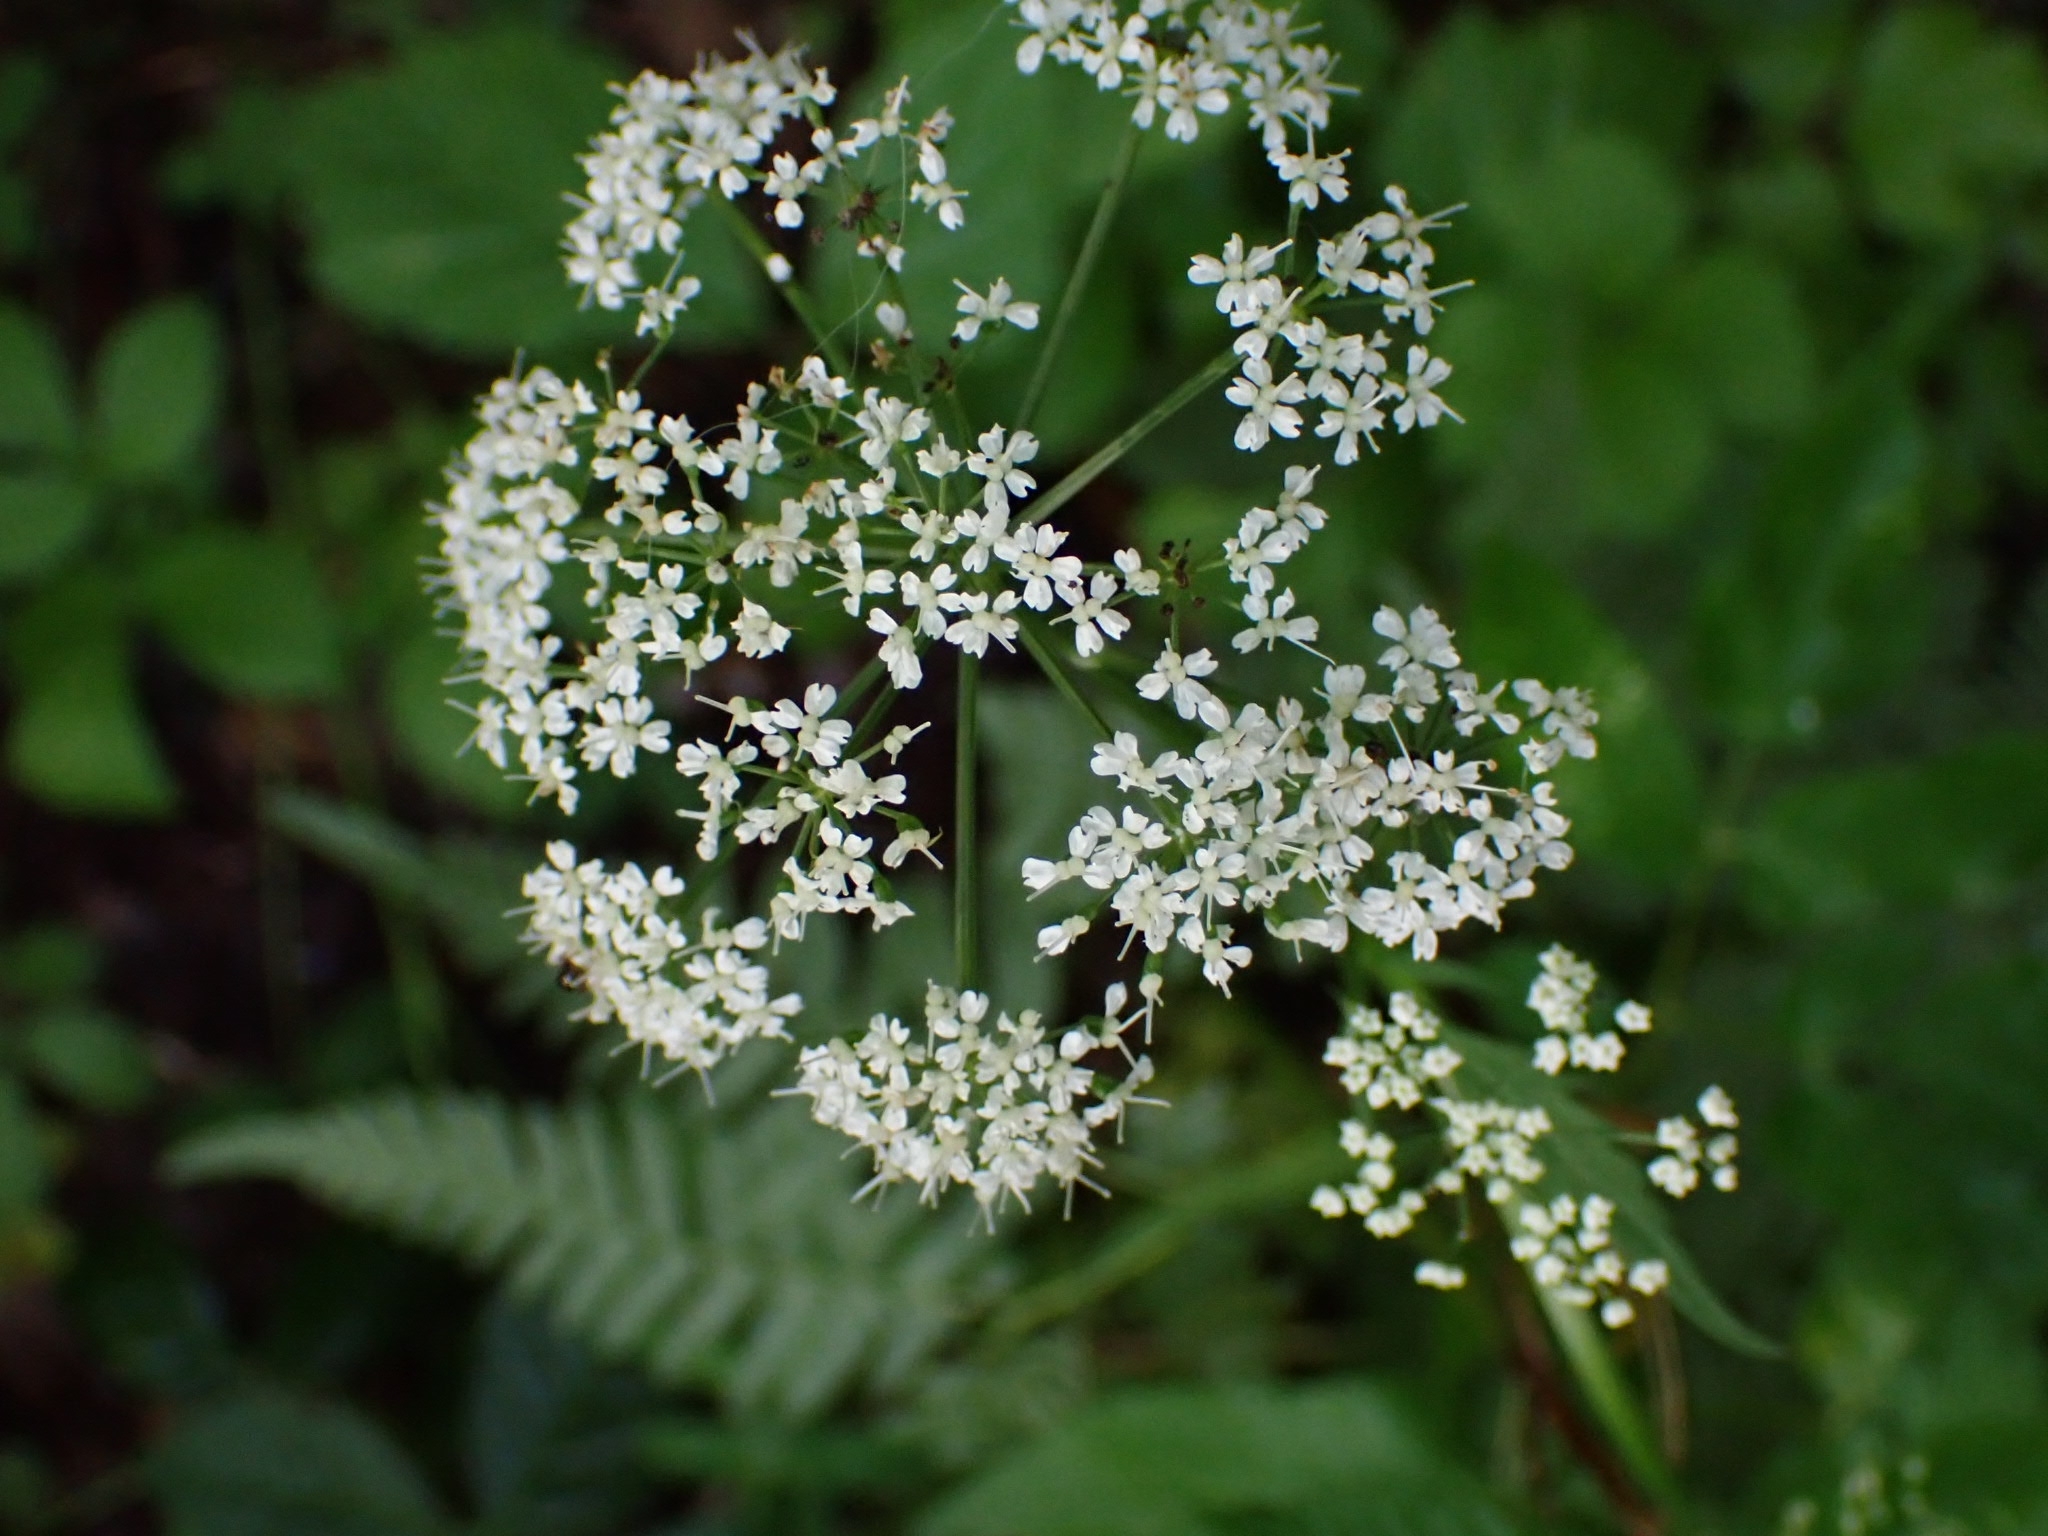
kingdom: Plantae
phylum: Tracheophyta
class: Magnoliopsida
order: Apiales
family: Apiaceae
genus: Anthriscus
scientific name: Anthriscus sylvestris
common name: Cow parsley
